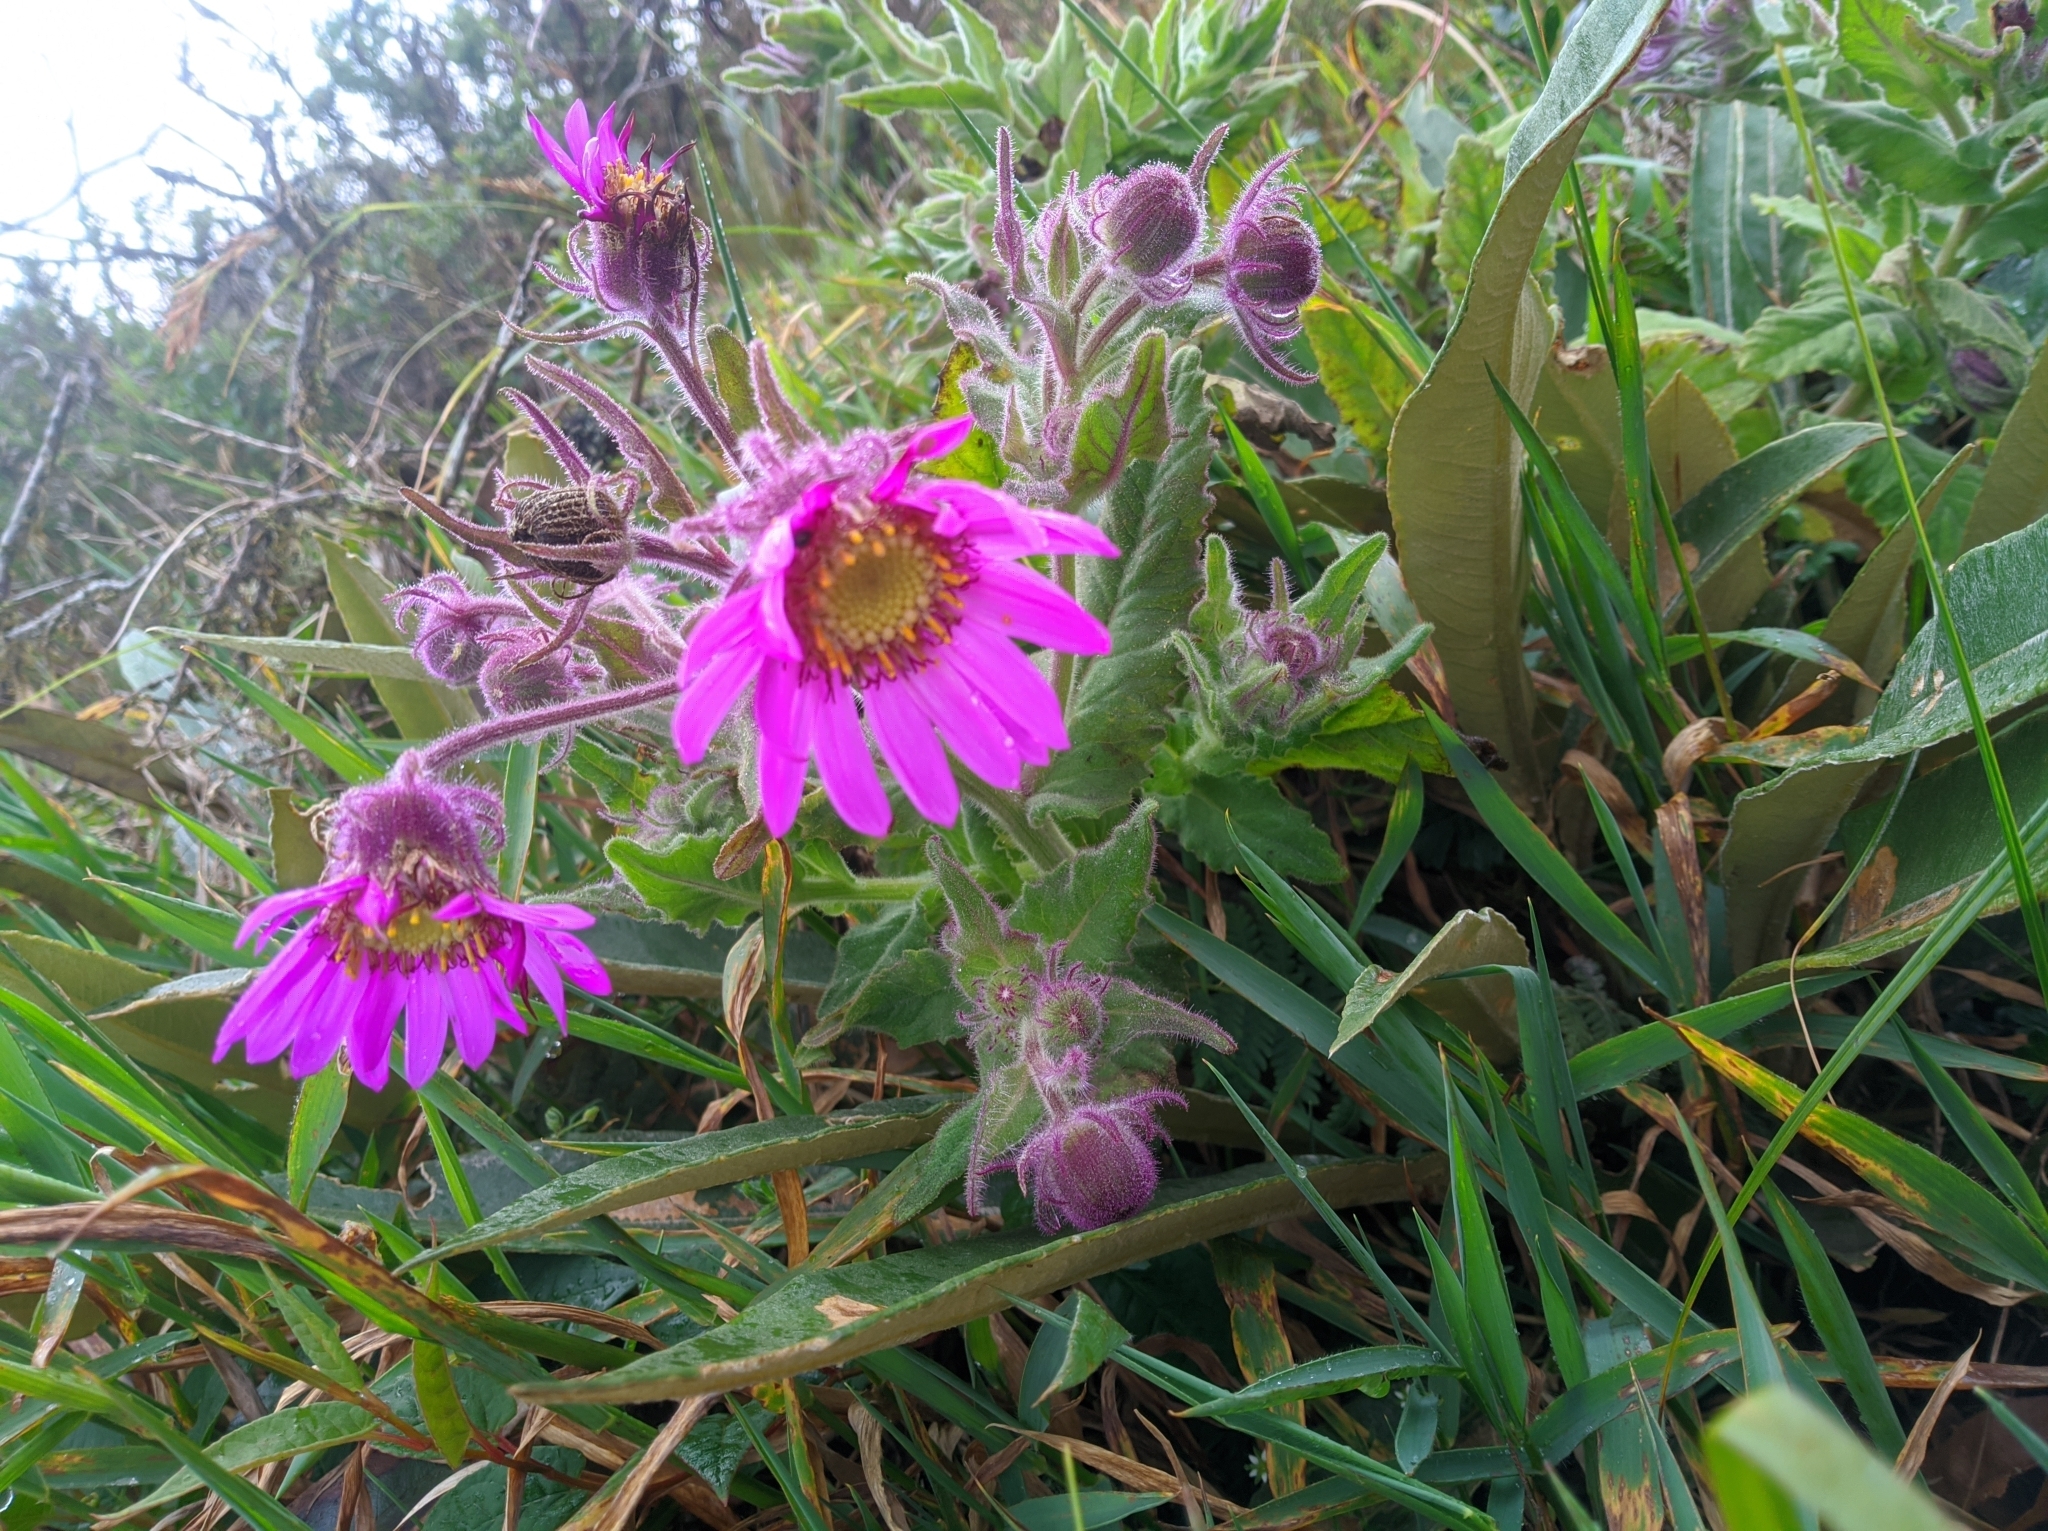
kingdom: Plantae
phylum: Tracheophyta
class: Magnoliopsida
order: Asterales
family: Asteraceae
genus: Senecio
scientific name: Senecio formosus
